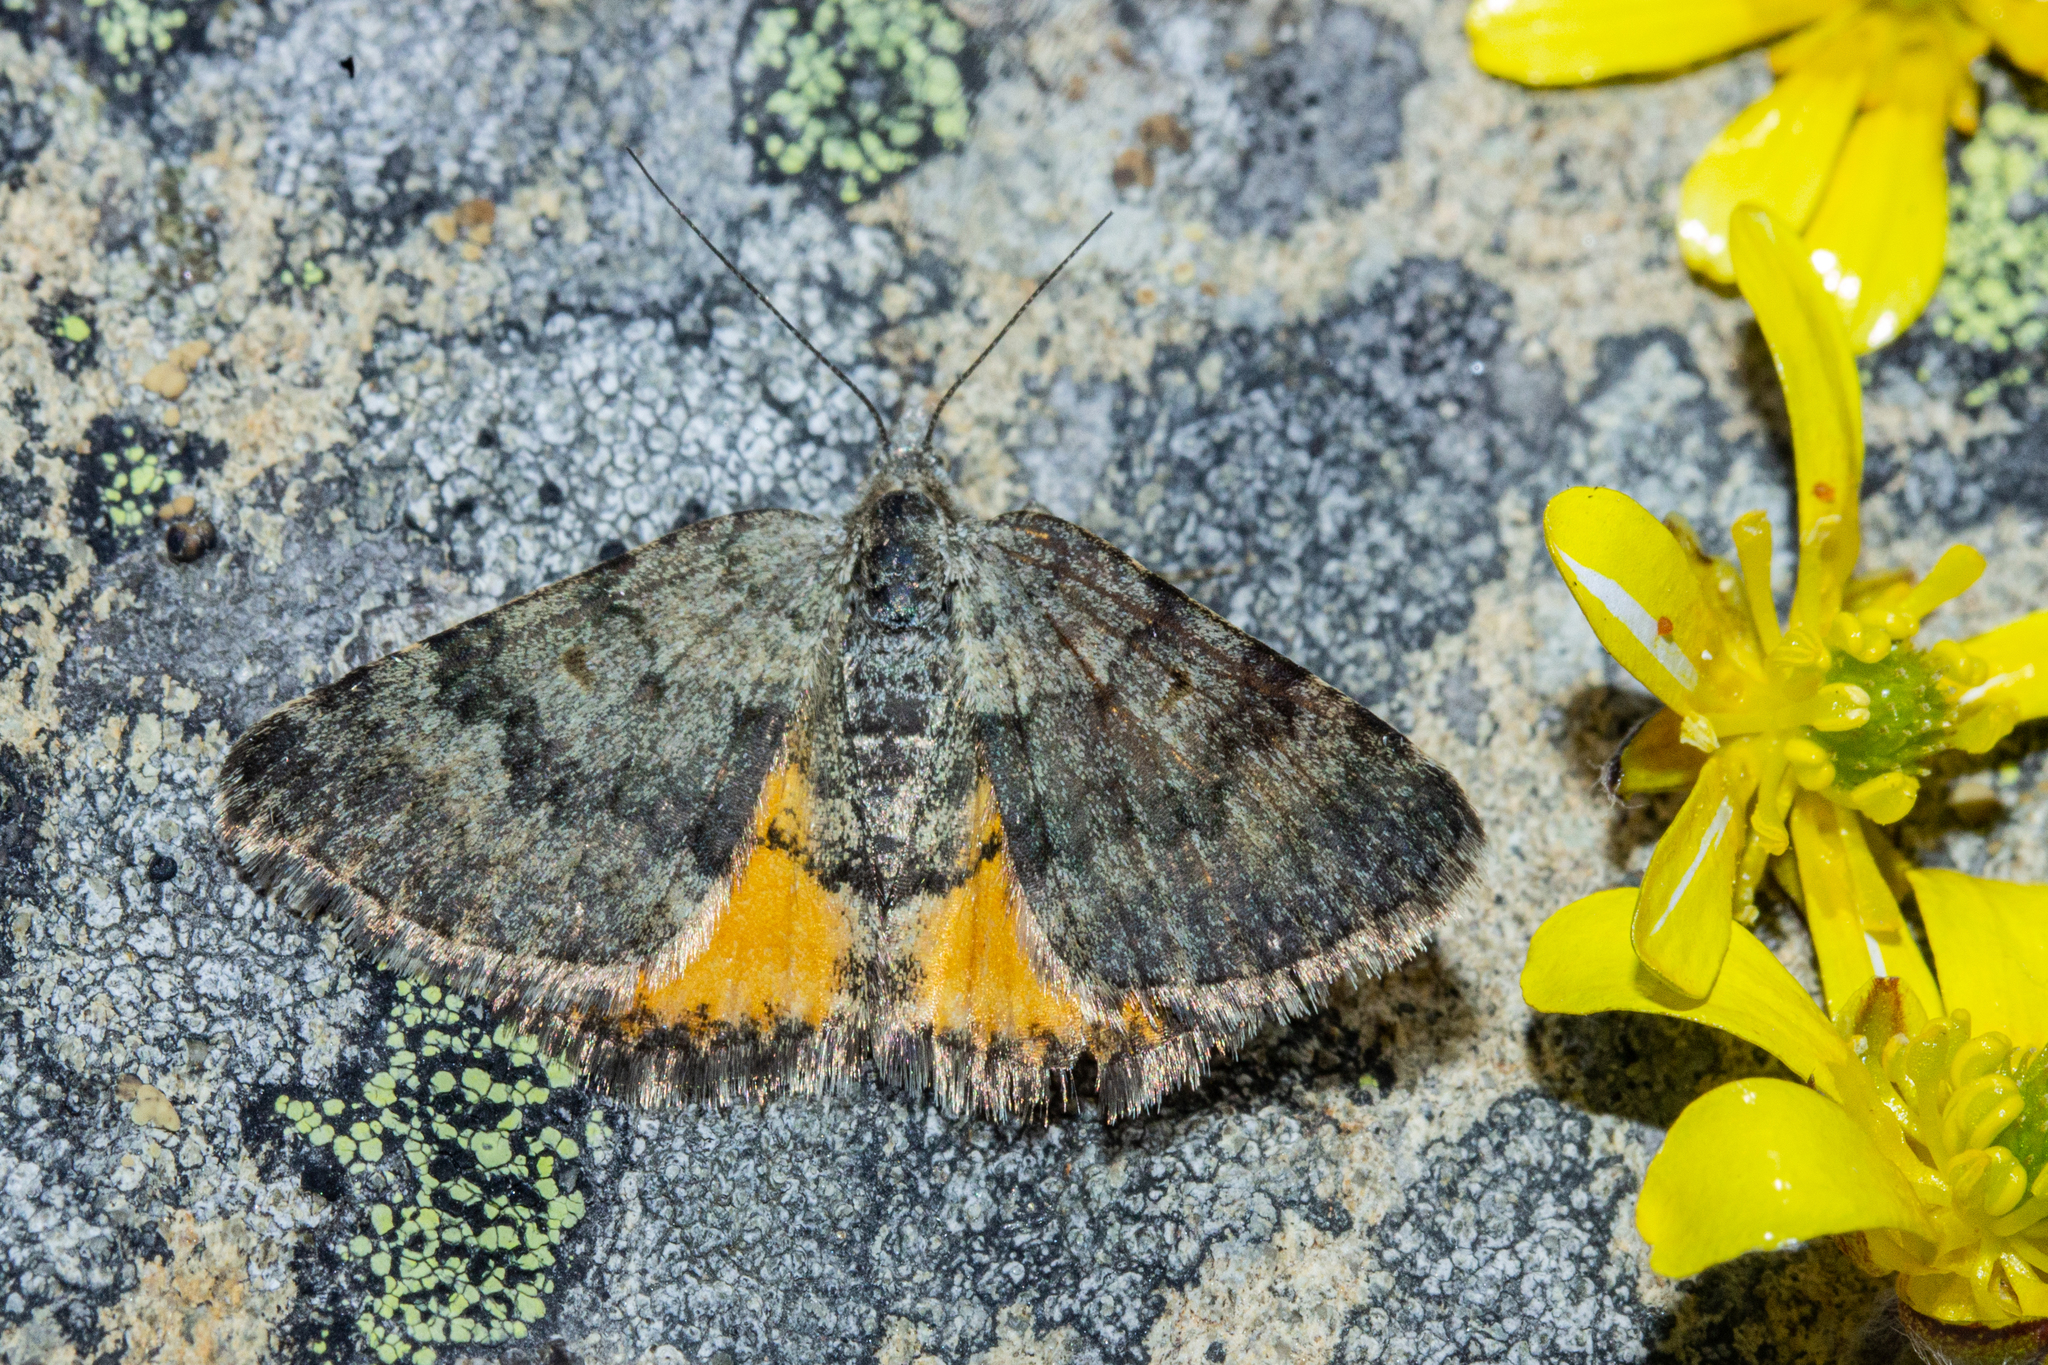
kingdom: Animalia
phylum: Arthropoda
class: Insecta
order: Lepidoptera
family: Geometridae
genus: Paranotoreas
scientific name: Paranotoreas brephosata
